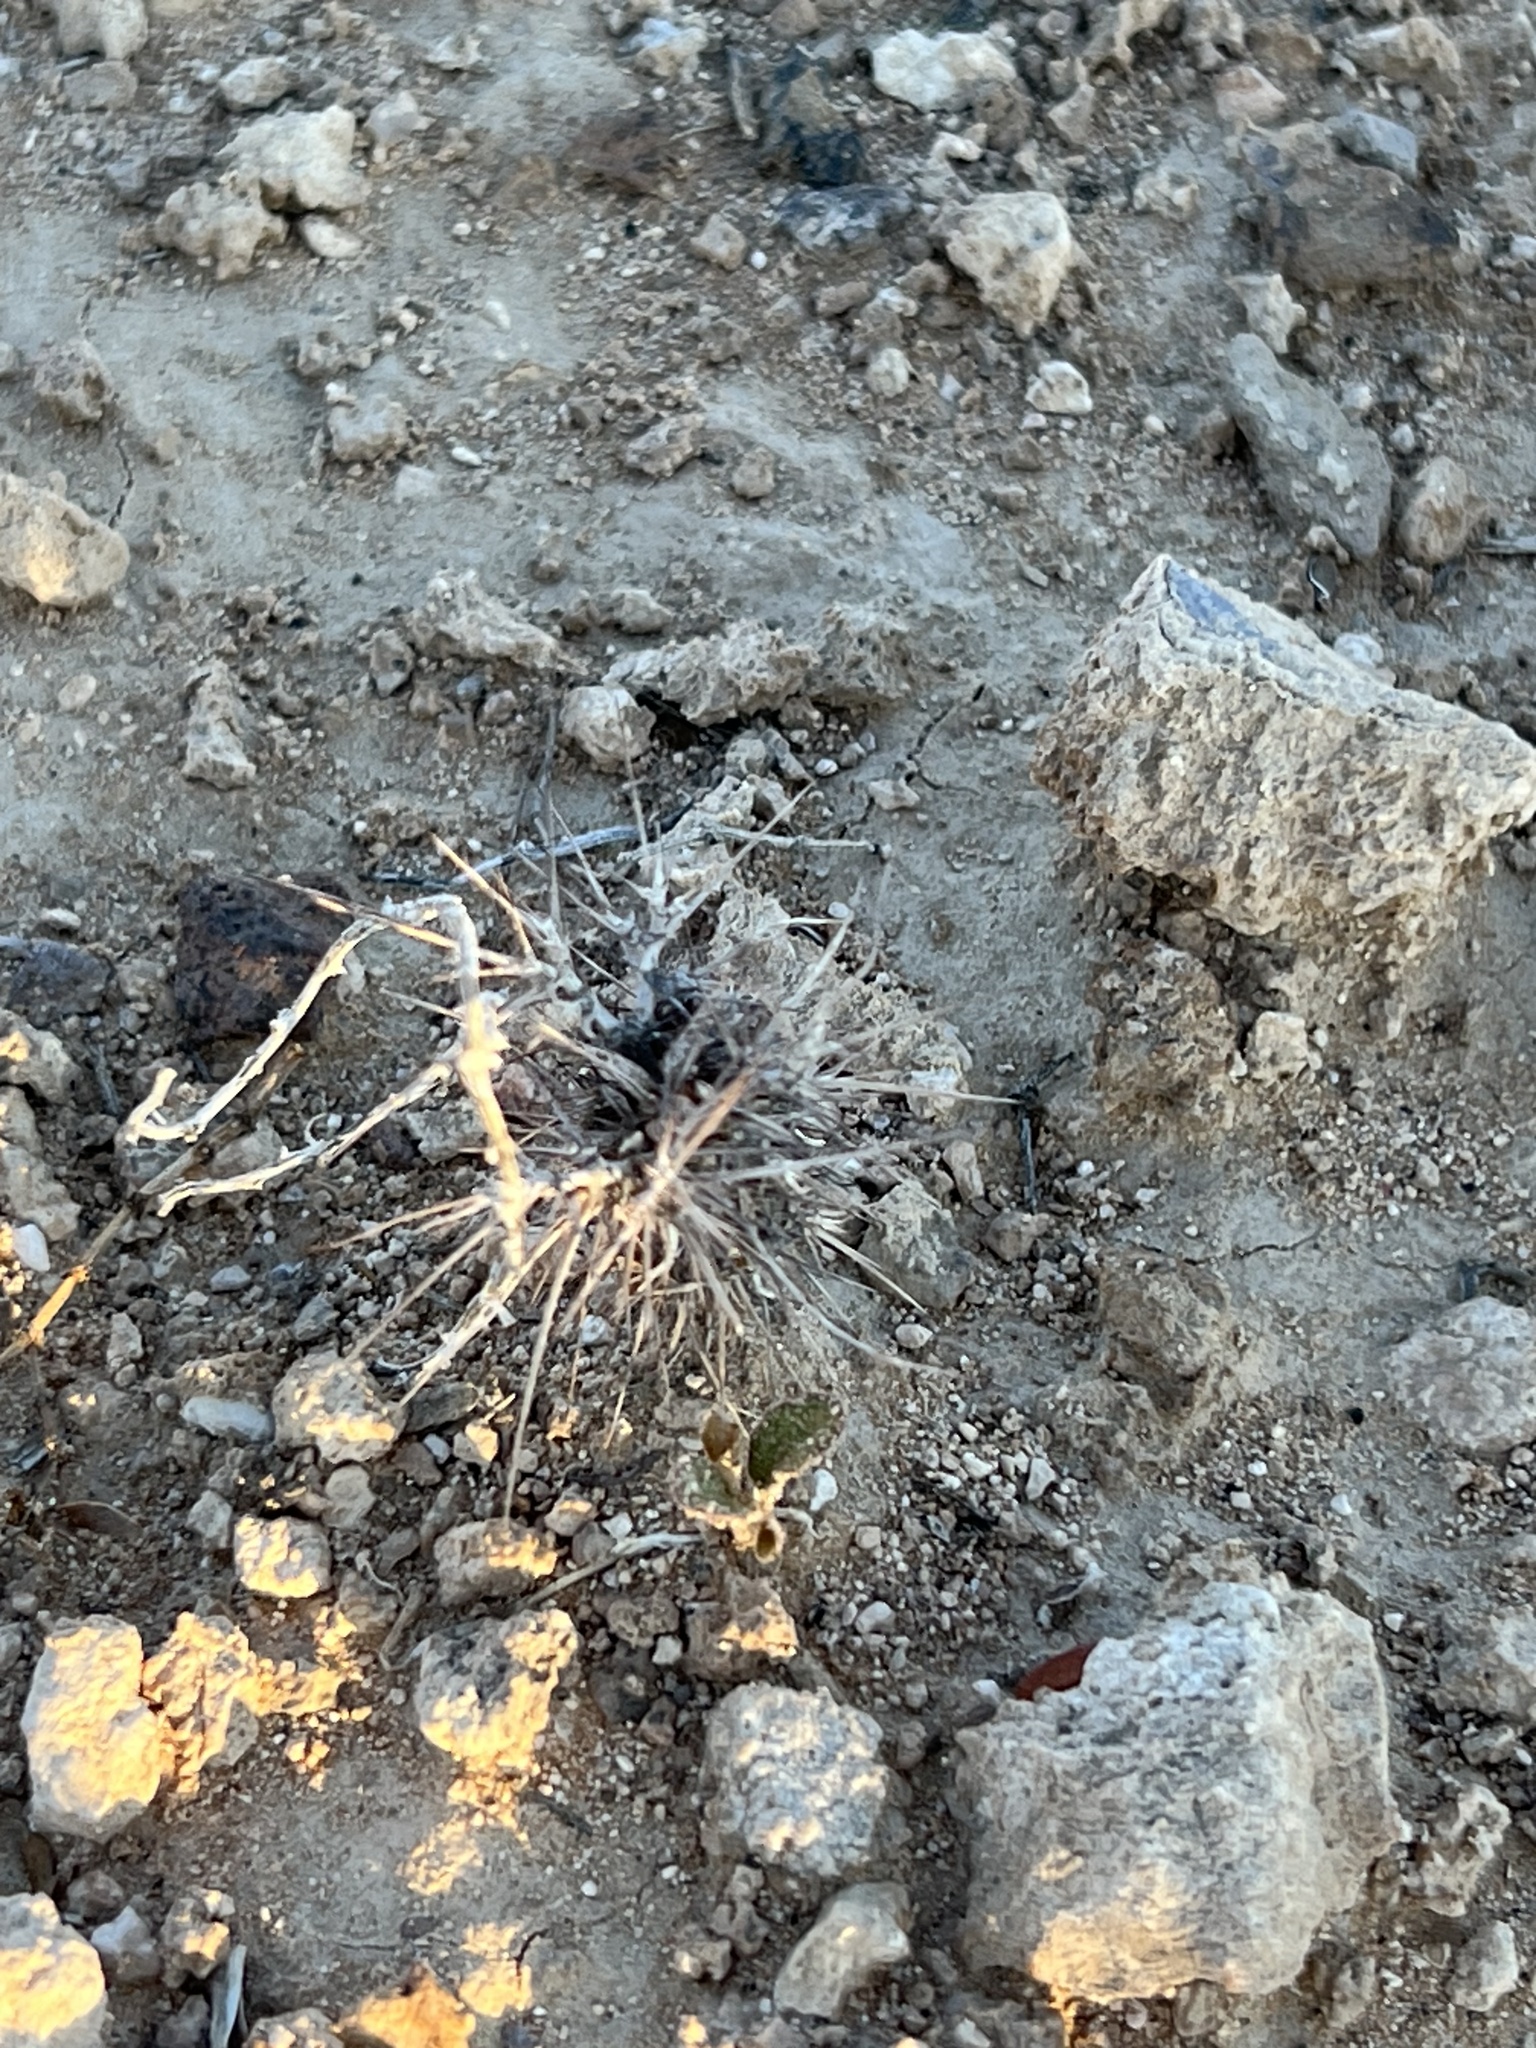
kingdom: Plantae
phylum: Tracheophyta
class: Magnoliopsida
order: Caryophyllales
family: Polygonaceae
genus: Chorizanthe
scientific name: Chorizanthe rigida
